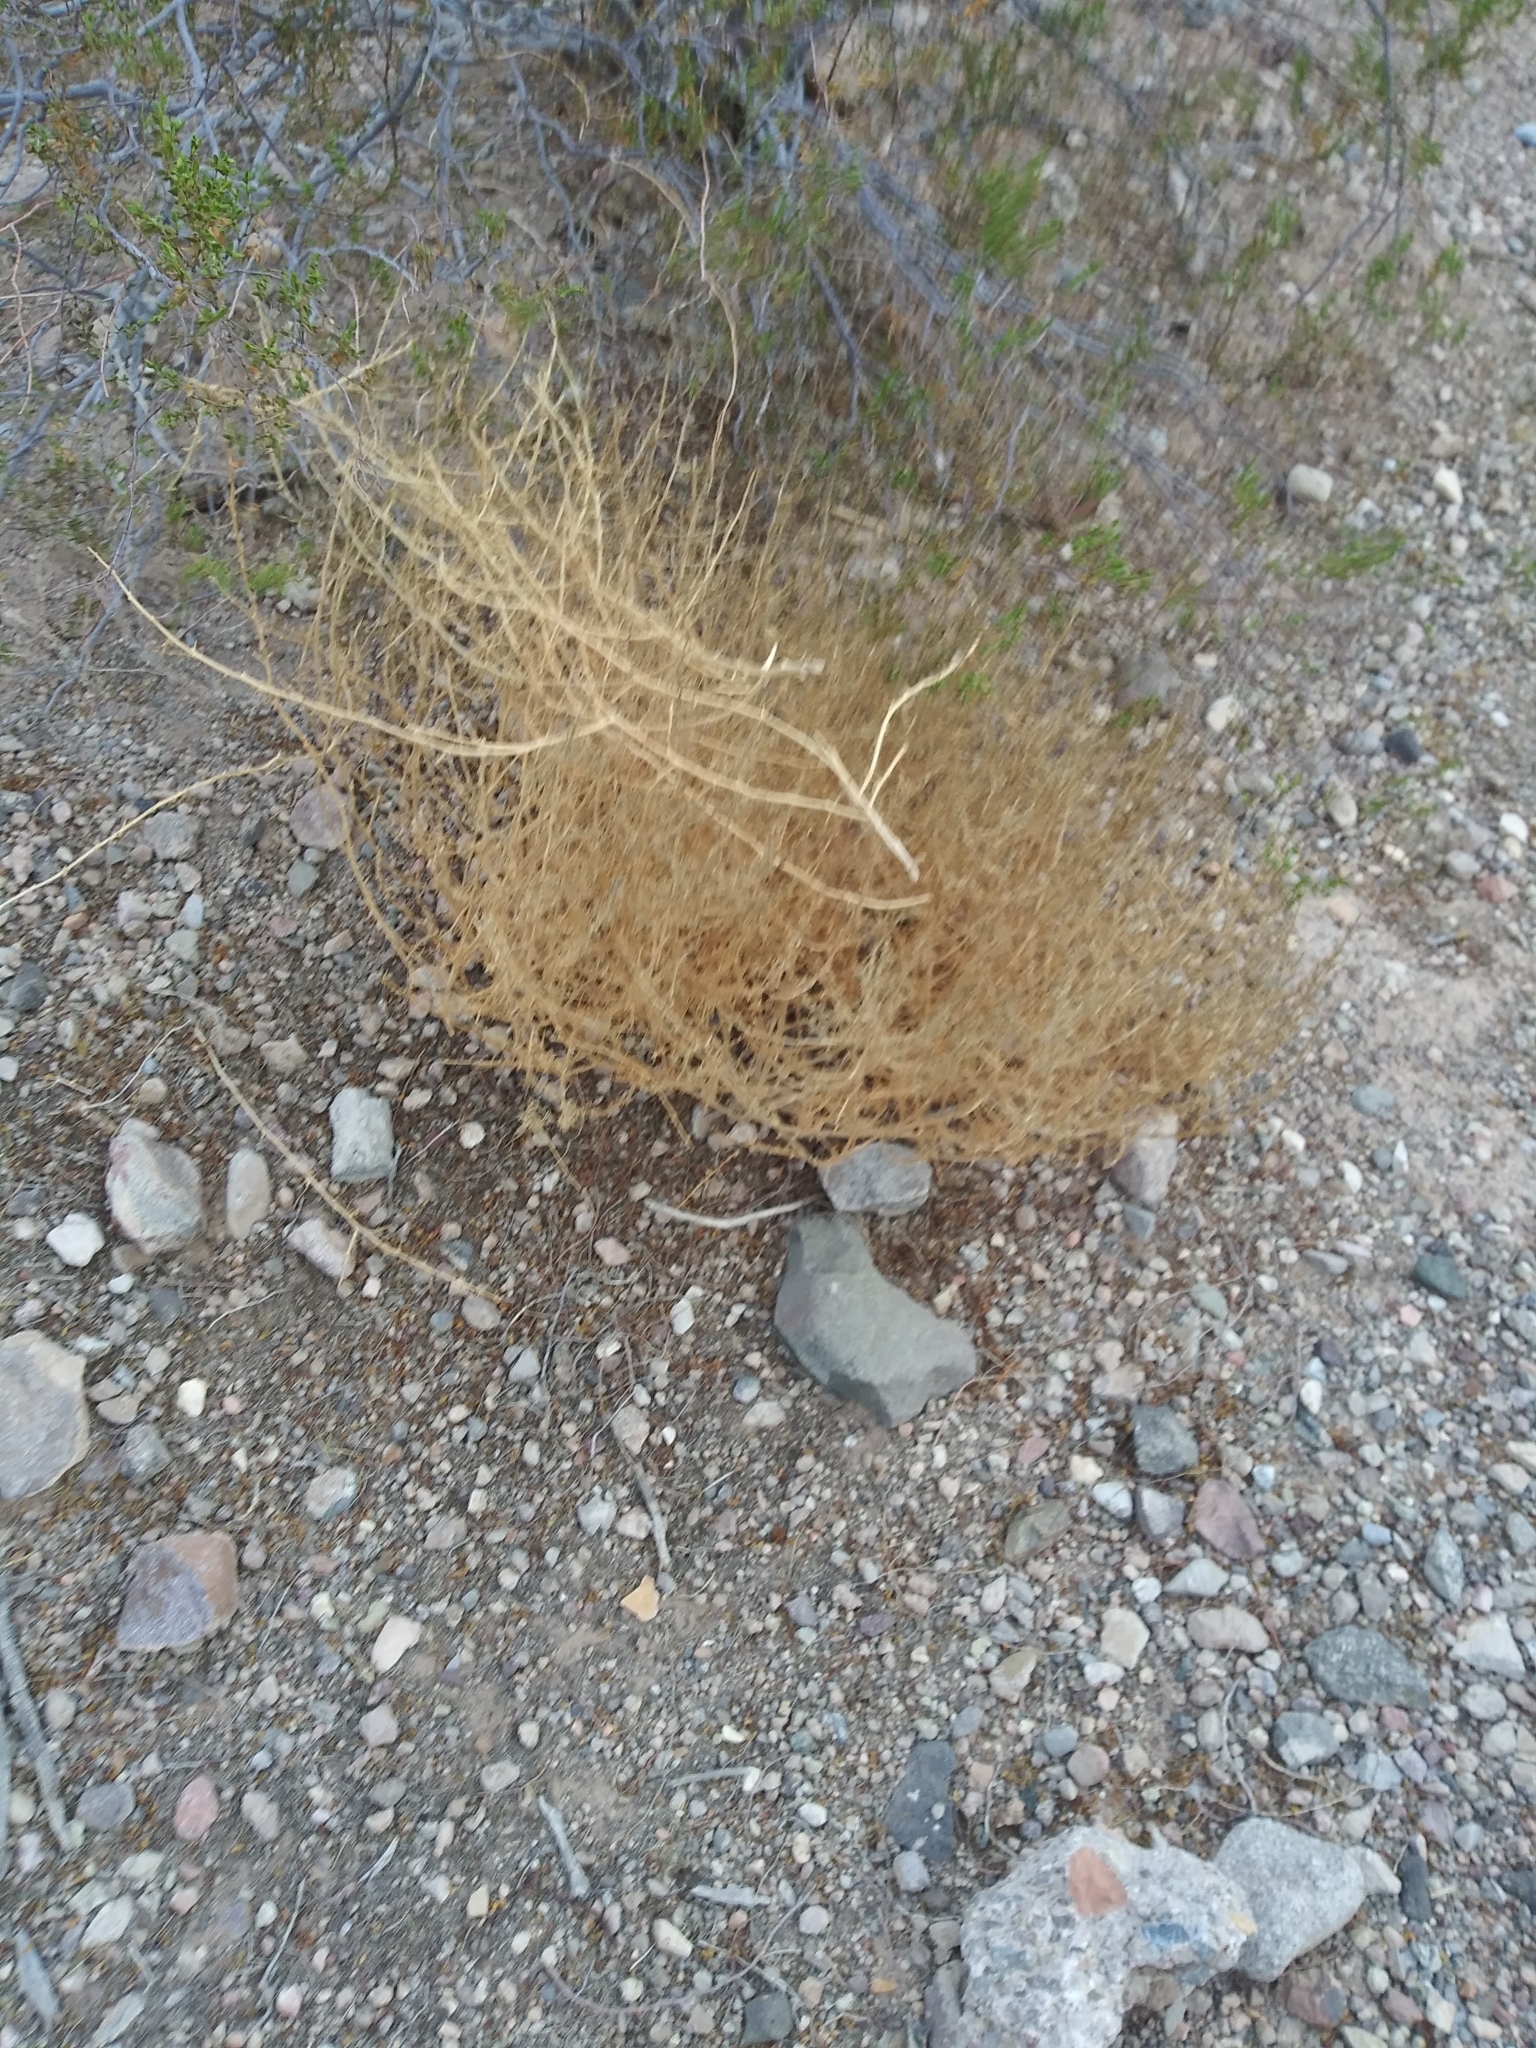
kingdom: Plantae
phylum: Tracheophyta
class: Magnoliopsida
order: Caryophyllales
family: Amaranthaceae
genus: Salsola
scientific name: Salsola tragus
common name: Prickly russian thistle
